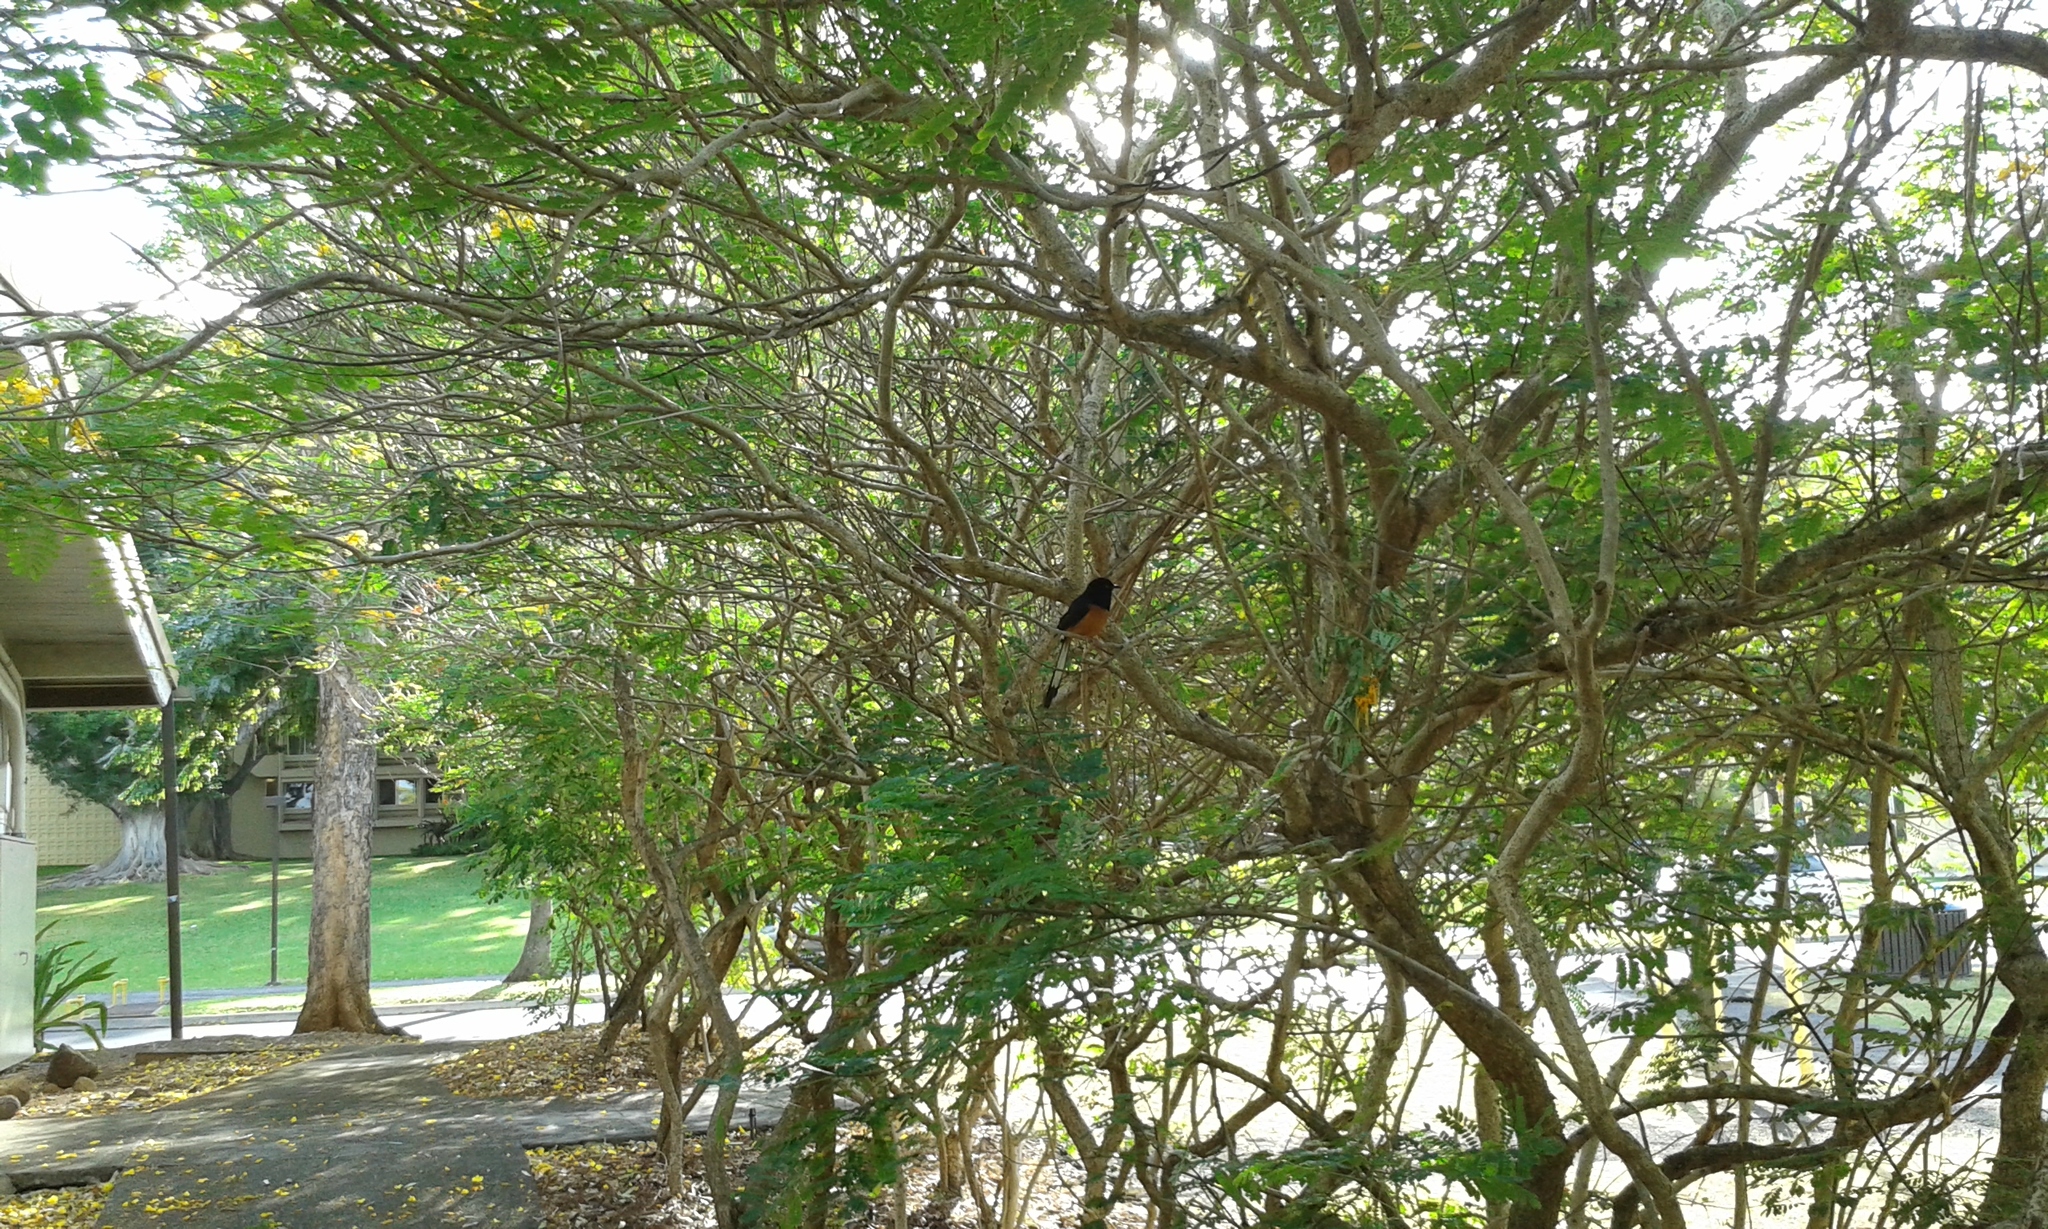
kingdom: Animalia
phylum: Chordata
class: Aves
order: Passeriformes
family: Muscicapidae
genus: Copsychus
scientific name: Copsychus malabaricus
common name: White-rumped shama
